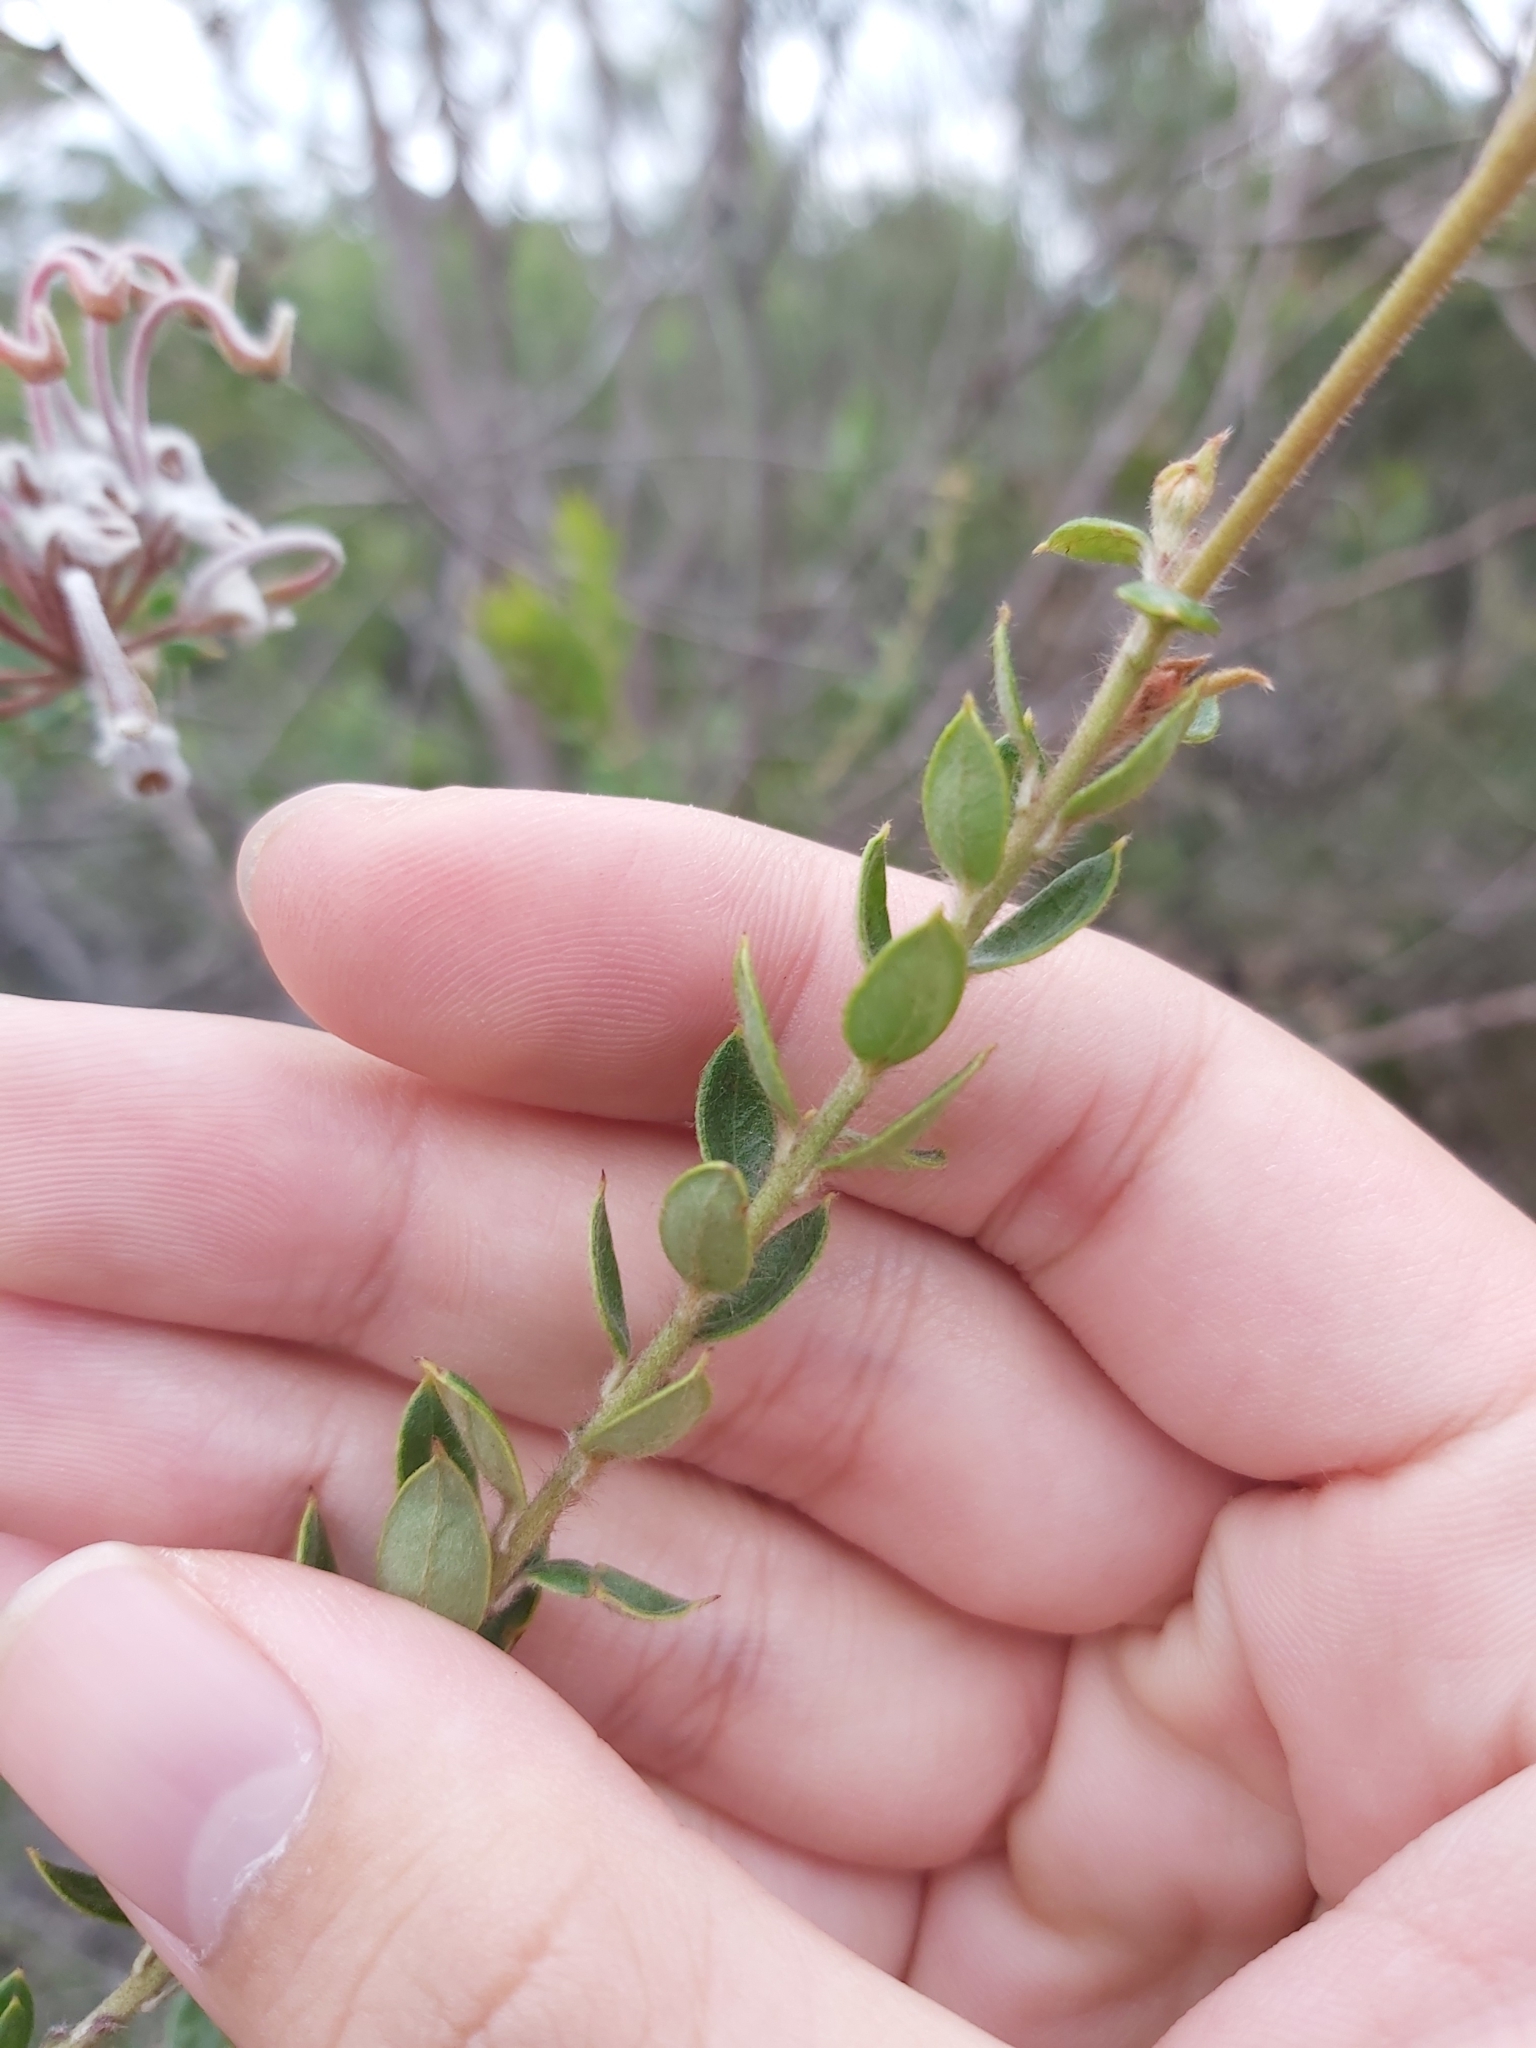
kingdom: Plantae
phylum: Tracheophyta
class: Magnoliopsida
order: Proteales
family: Proteaceae
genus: Grevillea
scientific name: Grevillea buxifolia
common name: Grey spiderflower
